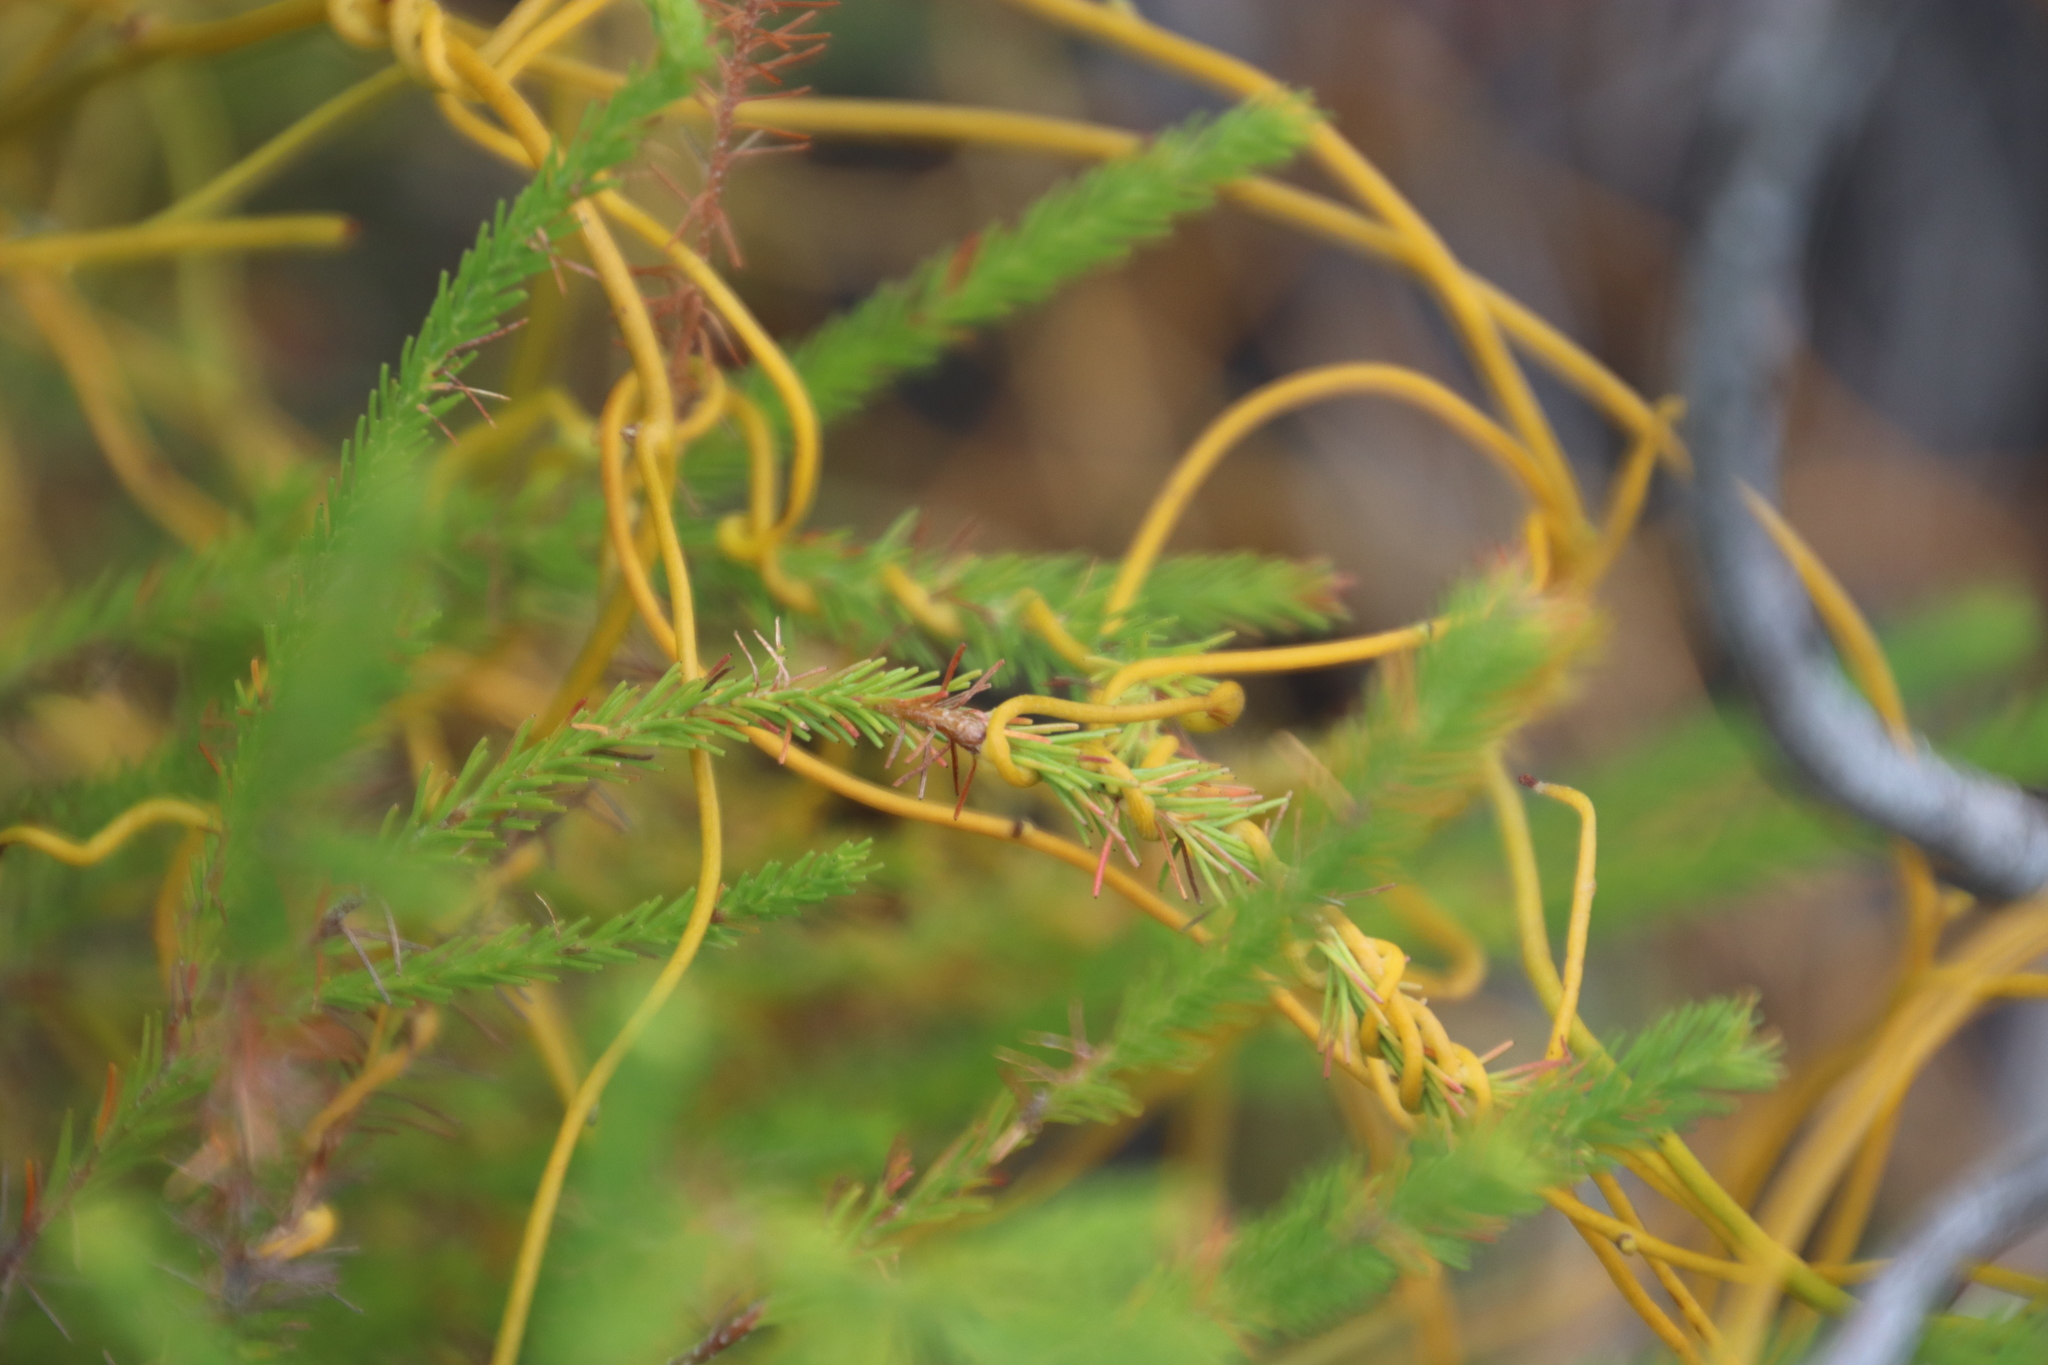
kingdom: Plantae
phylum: Tracheophyta
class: Magnoliopsida
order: Bruniales
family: Bruniaceae
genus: Berzelia
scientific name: Berzelia lanuginosa
